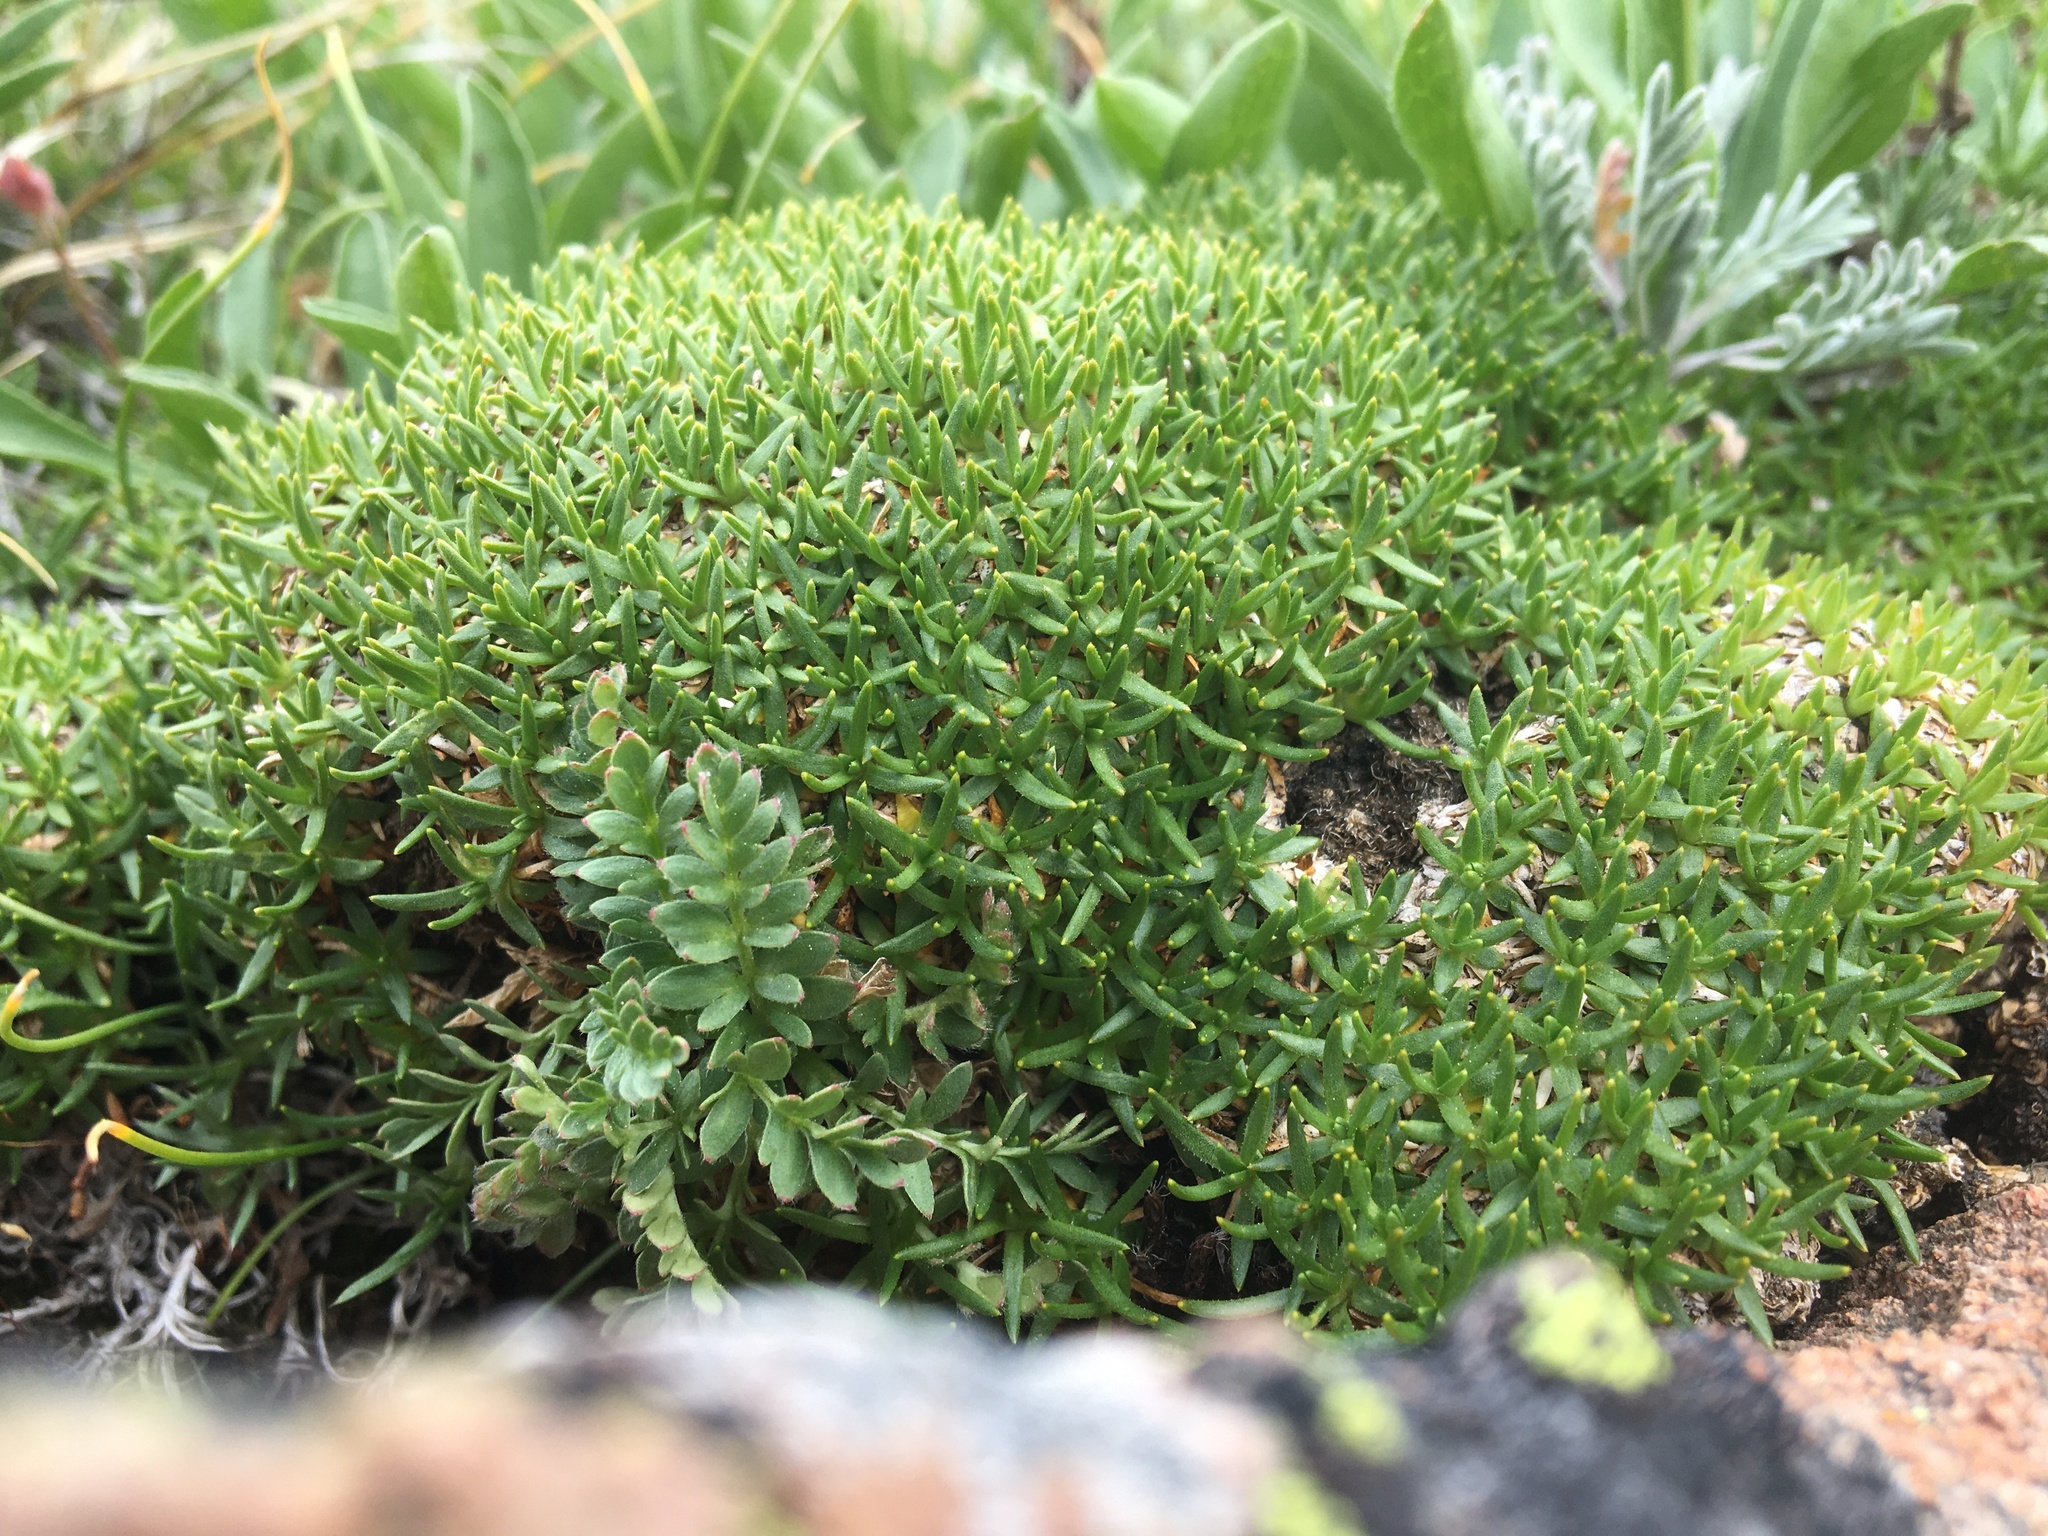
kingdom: Plantae
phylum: Tracheophyta
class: Magnoliopsida
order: Caryophyllales
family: Caryophyllaceae
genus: Silene
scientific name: Silene acaulis
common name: Moss campion
